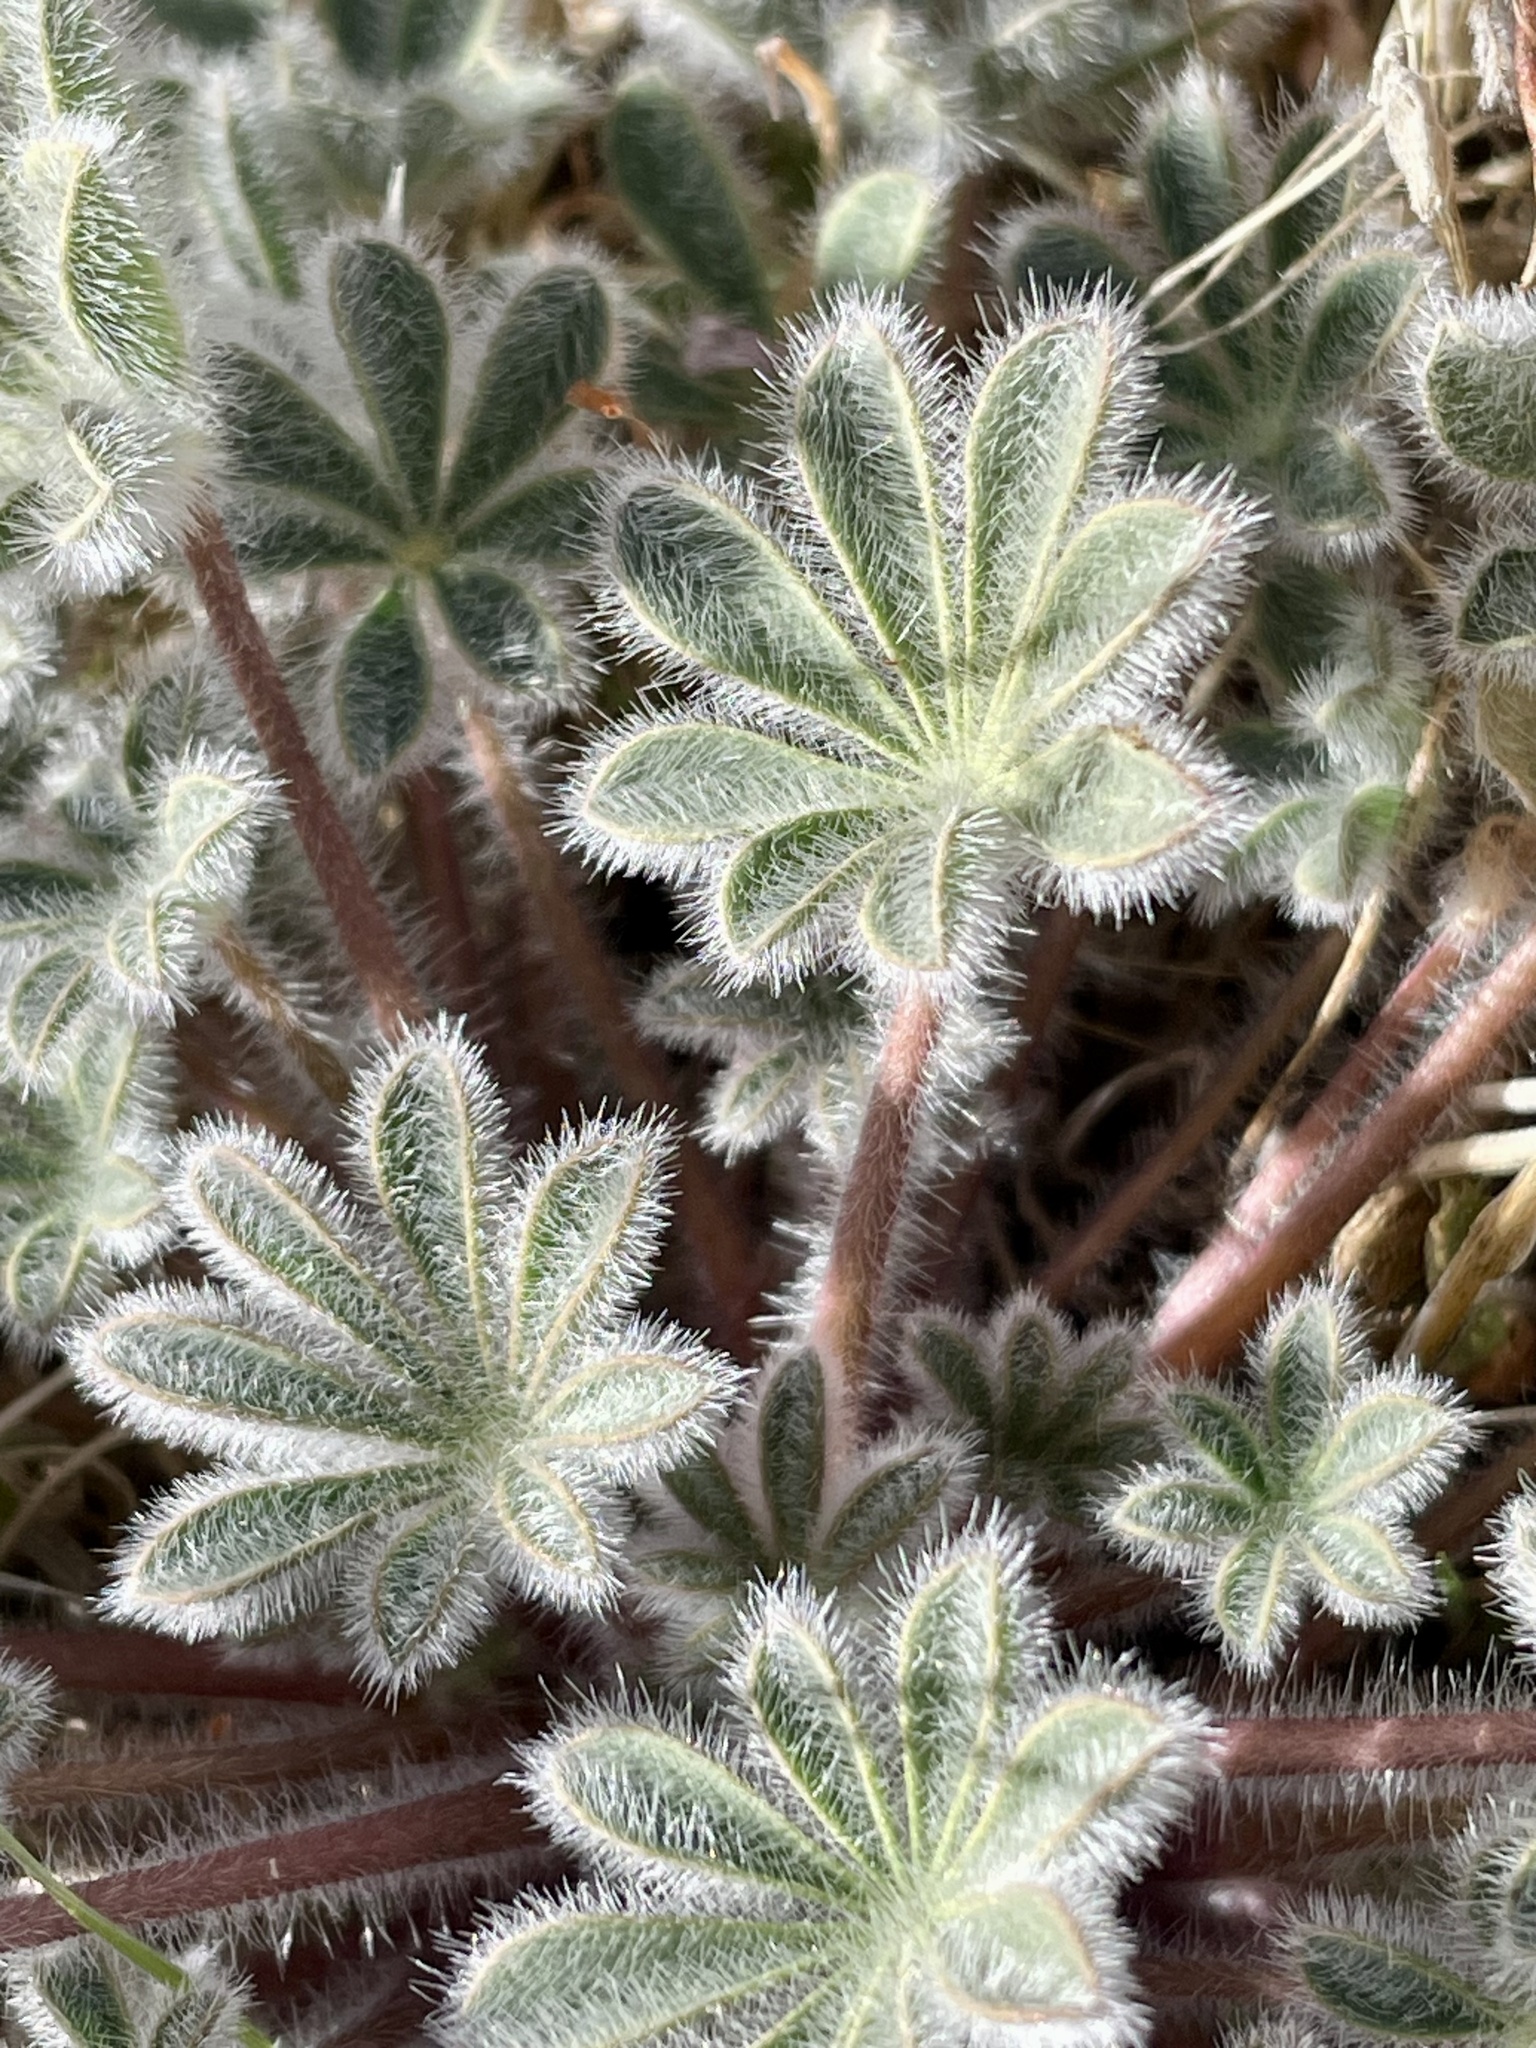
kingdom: Plantae
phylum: Tracheophyta
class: Magnoliopsida
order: Fabales
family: Fabaceae
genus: Lupinus
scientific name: Lupinus concinnus
